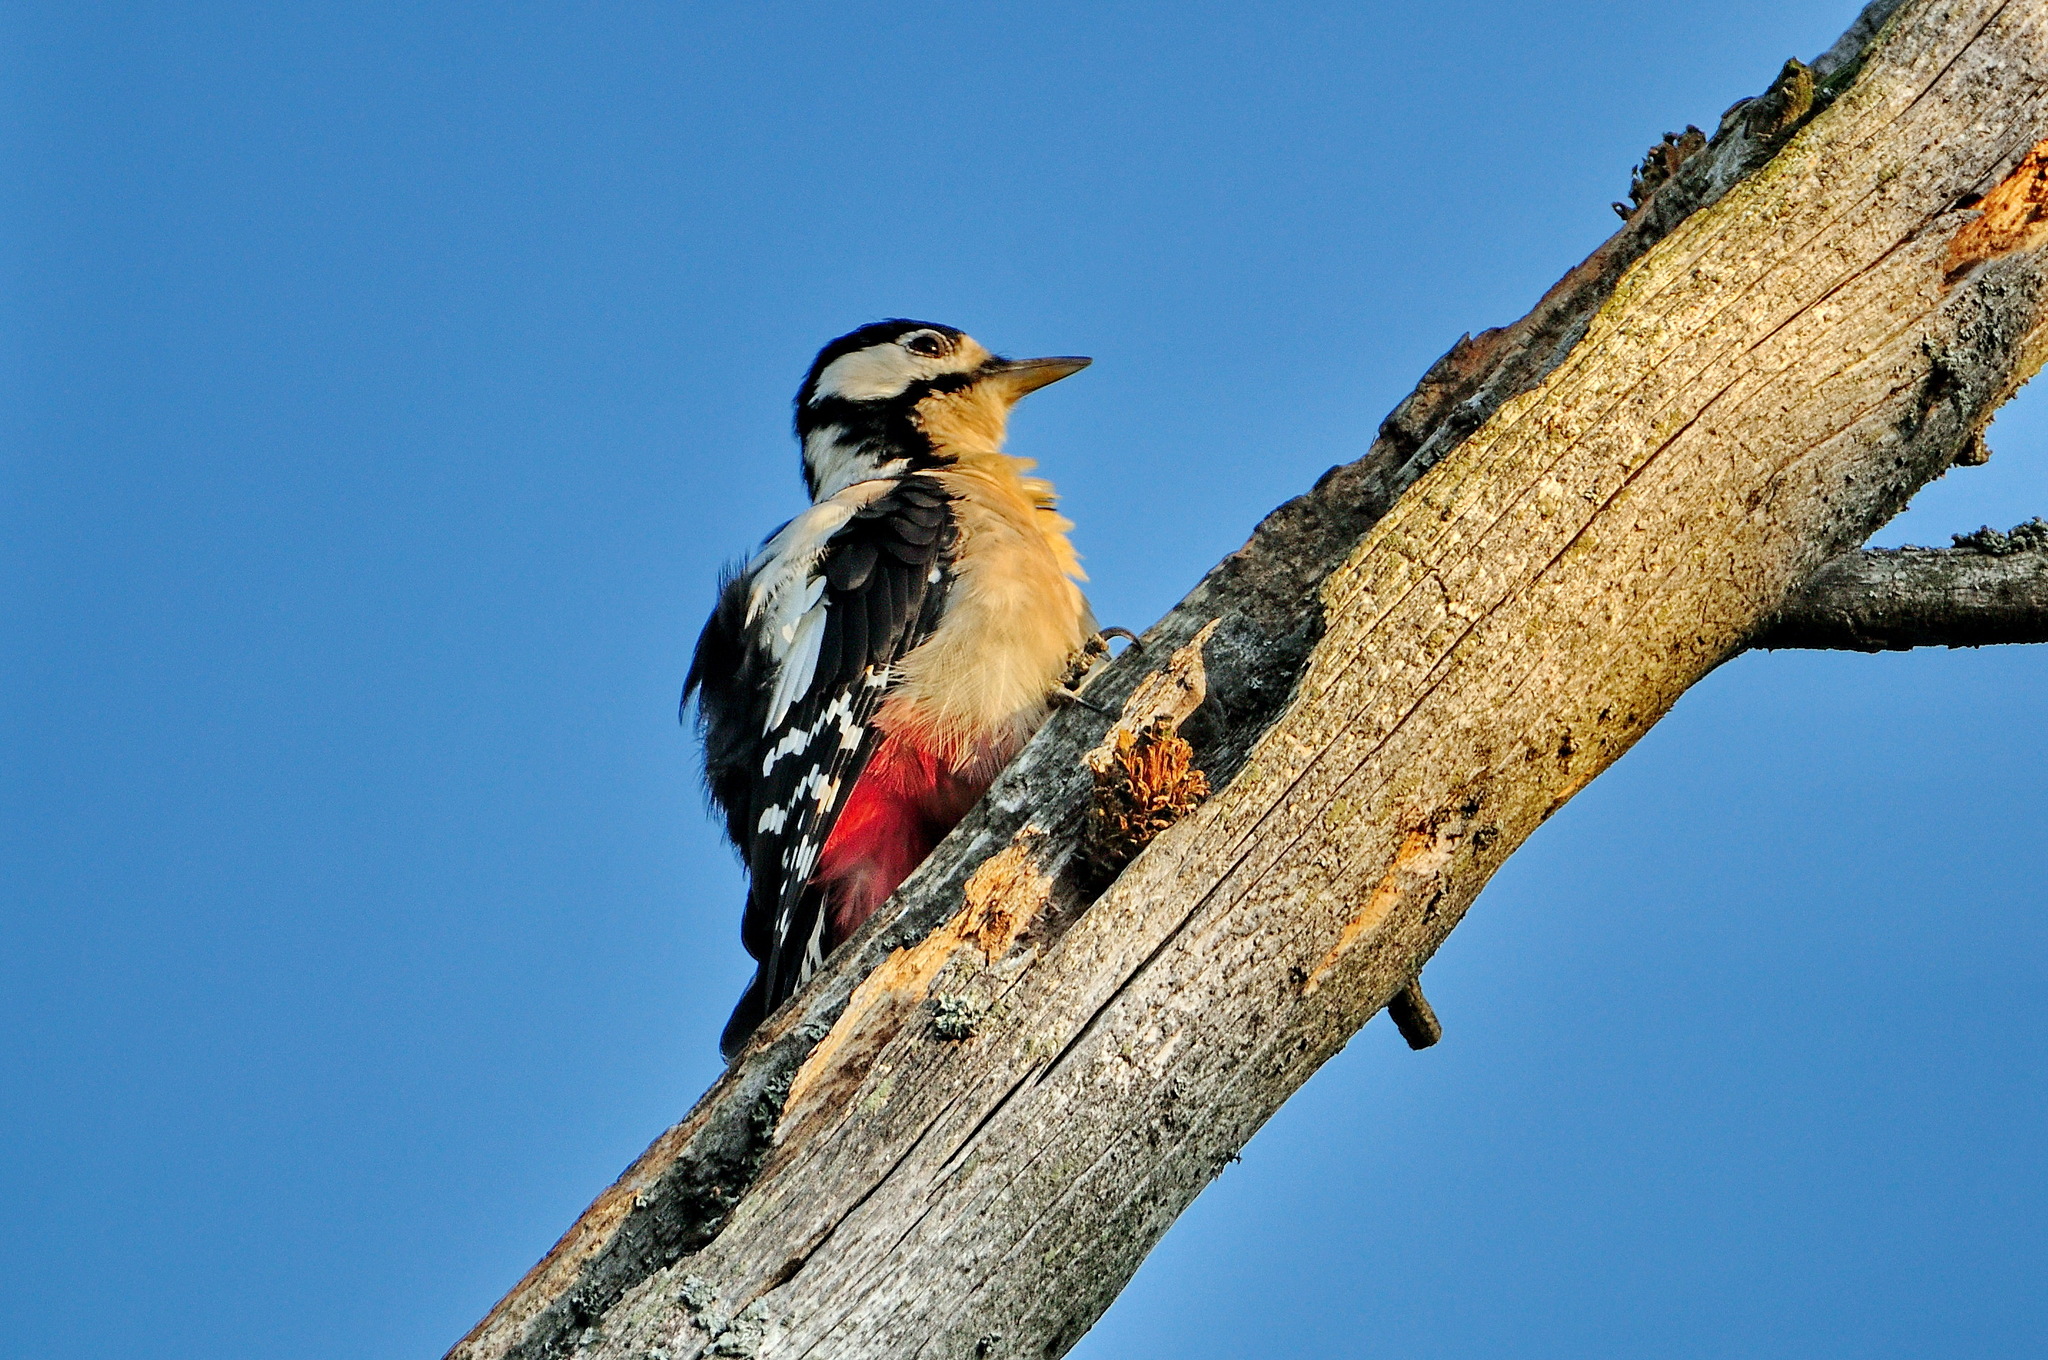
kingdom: Animalia
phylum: Chordata
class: Aves
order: Piciformes
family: Picidae
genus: Dendrocopos
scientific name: Dendrocopos major
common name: Great spotted woodpecker
